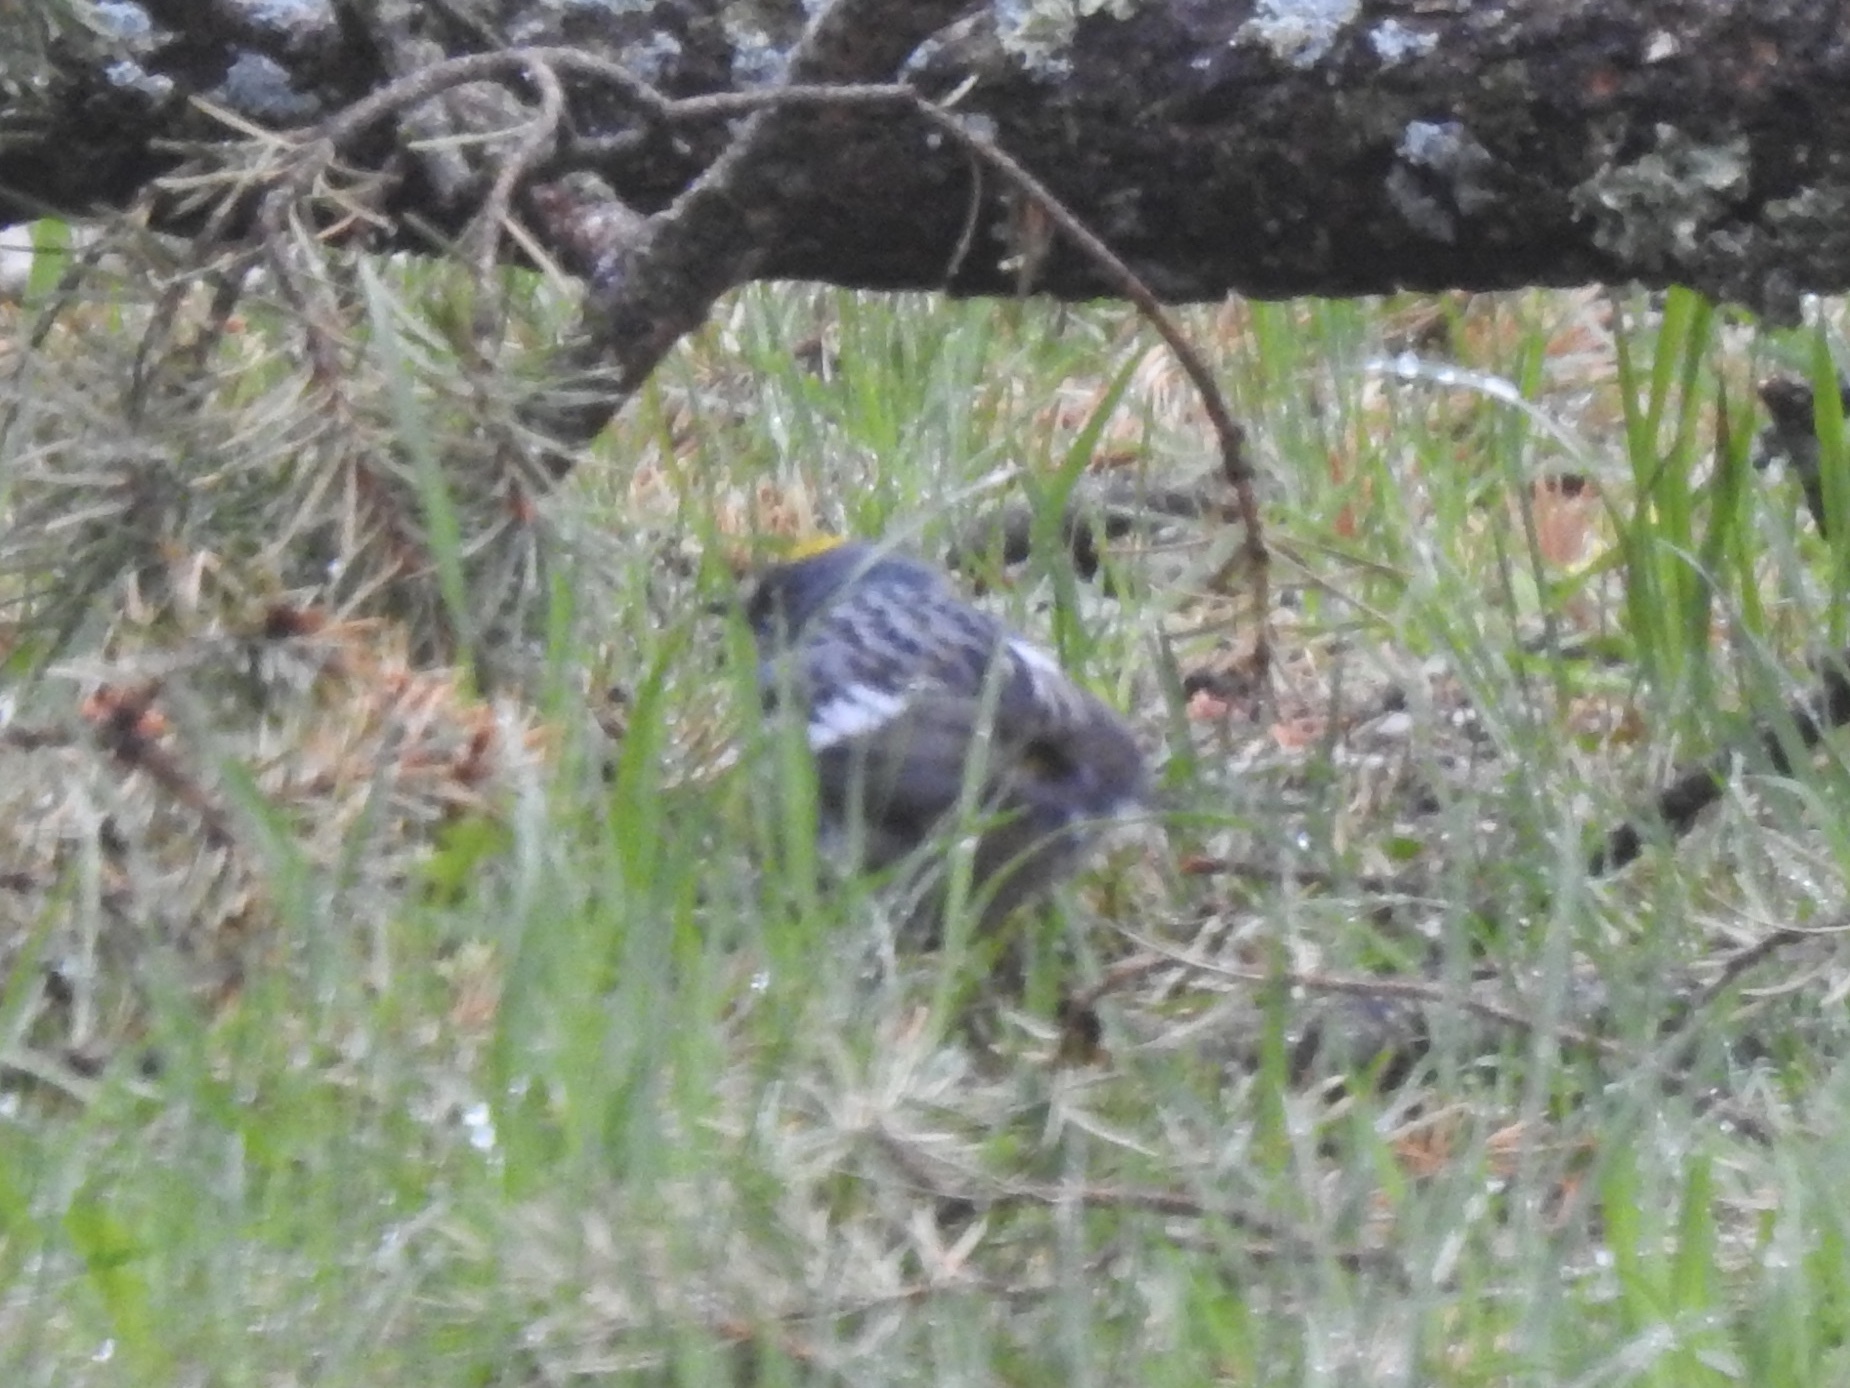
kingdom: Animalia
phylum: Chordata
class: Aves
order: Passeriformes
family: Parulidae
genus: Setophaga
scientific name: Setophaga auduboni
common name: Audubon's warbler
